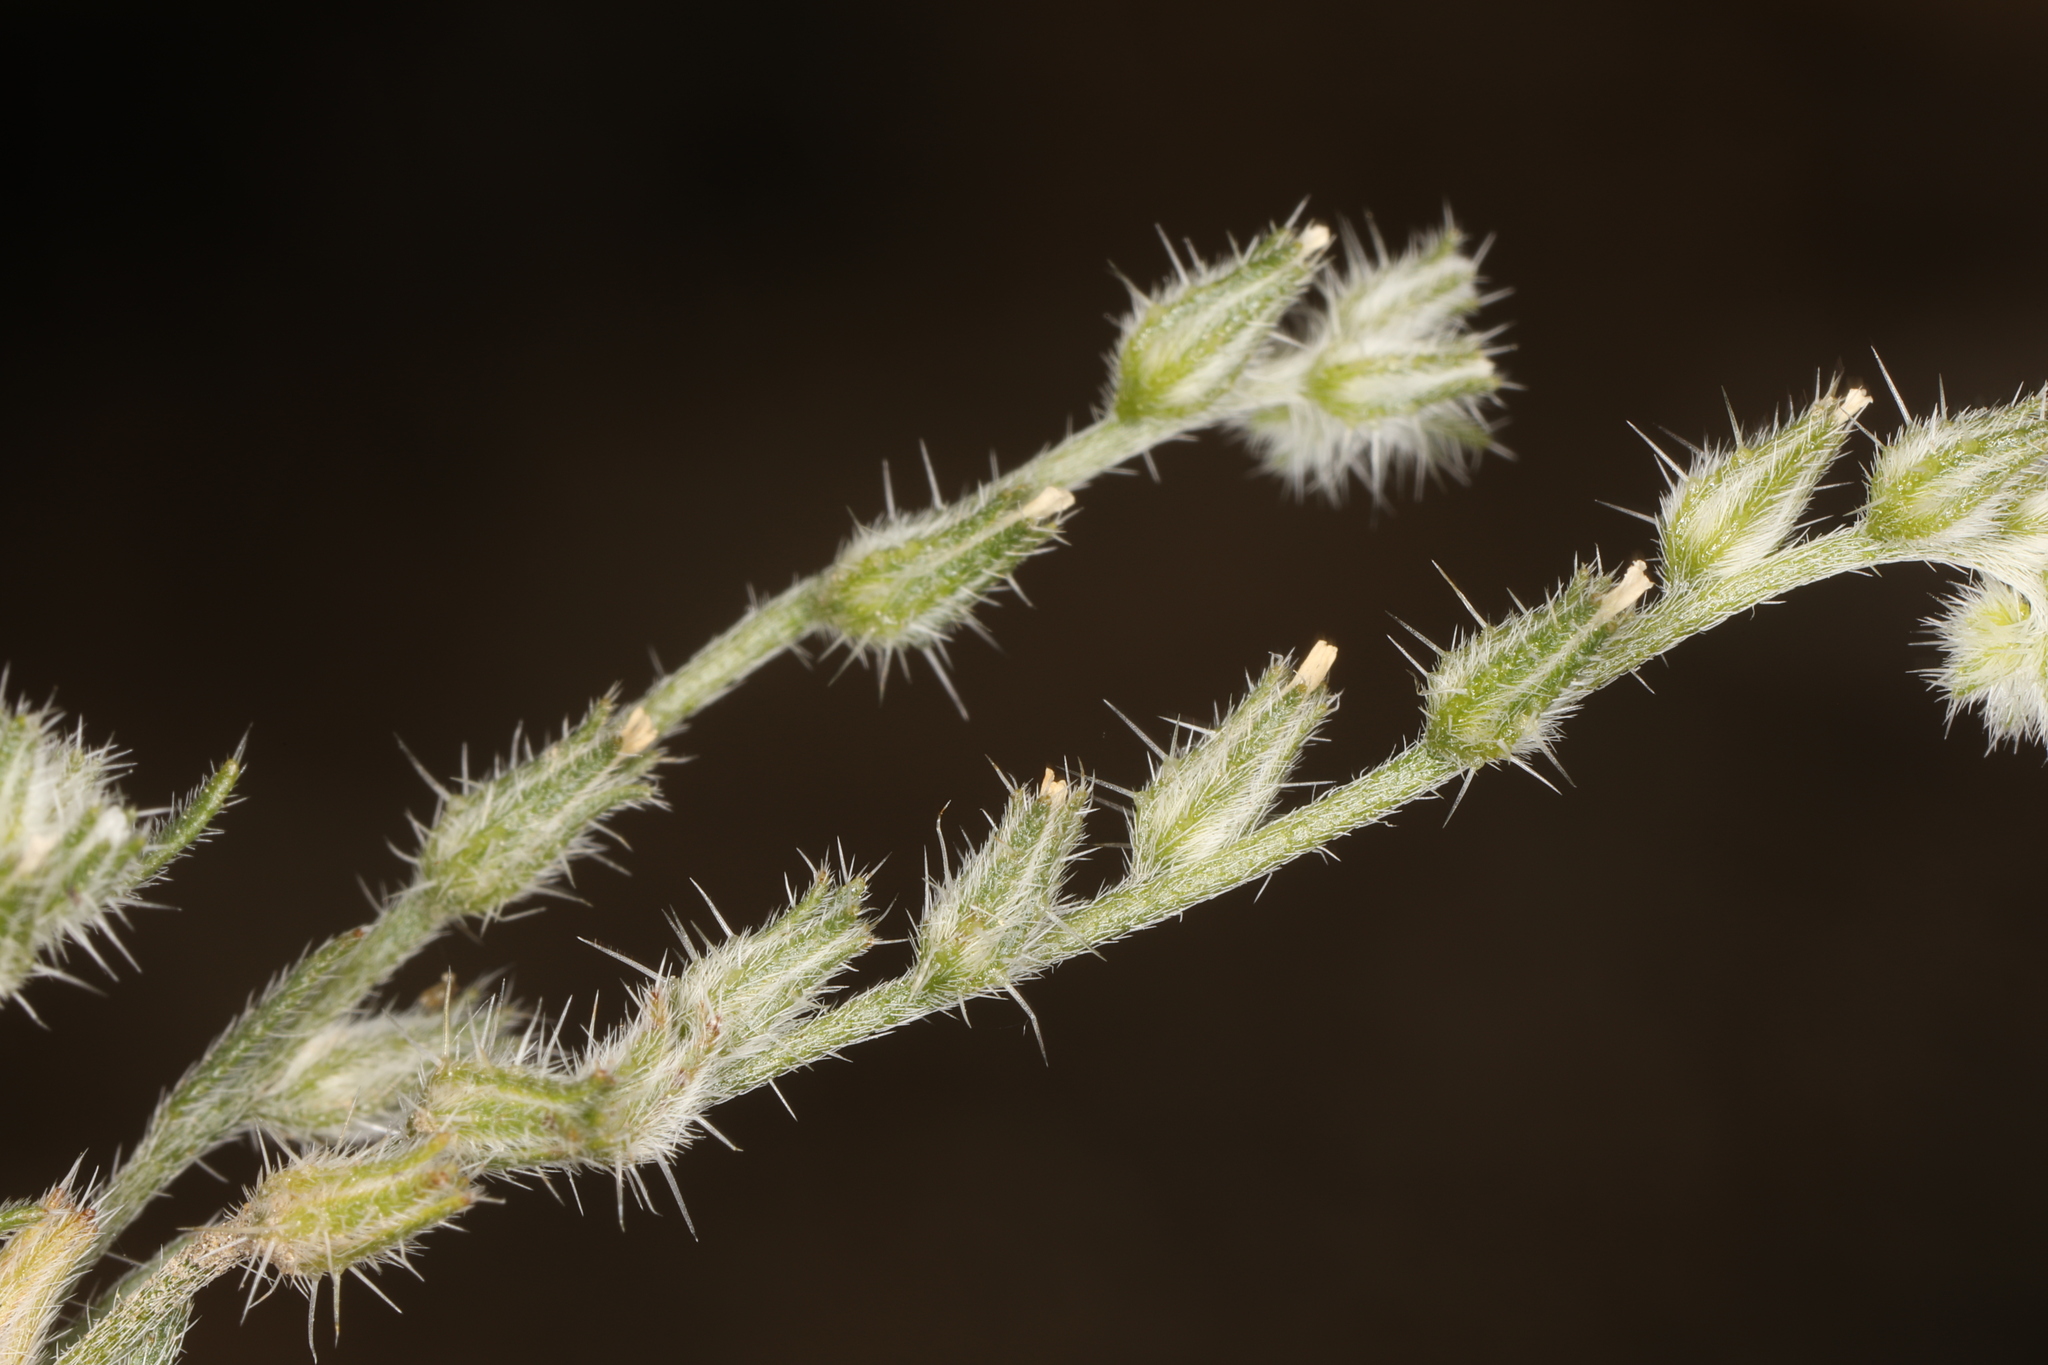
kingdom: Plantae
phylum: Tracheophyta
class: Magnoliopsida
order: Boraginales
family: Boraginaceae
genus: Cryptantha
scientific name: Cryptantha scoparia
